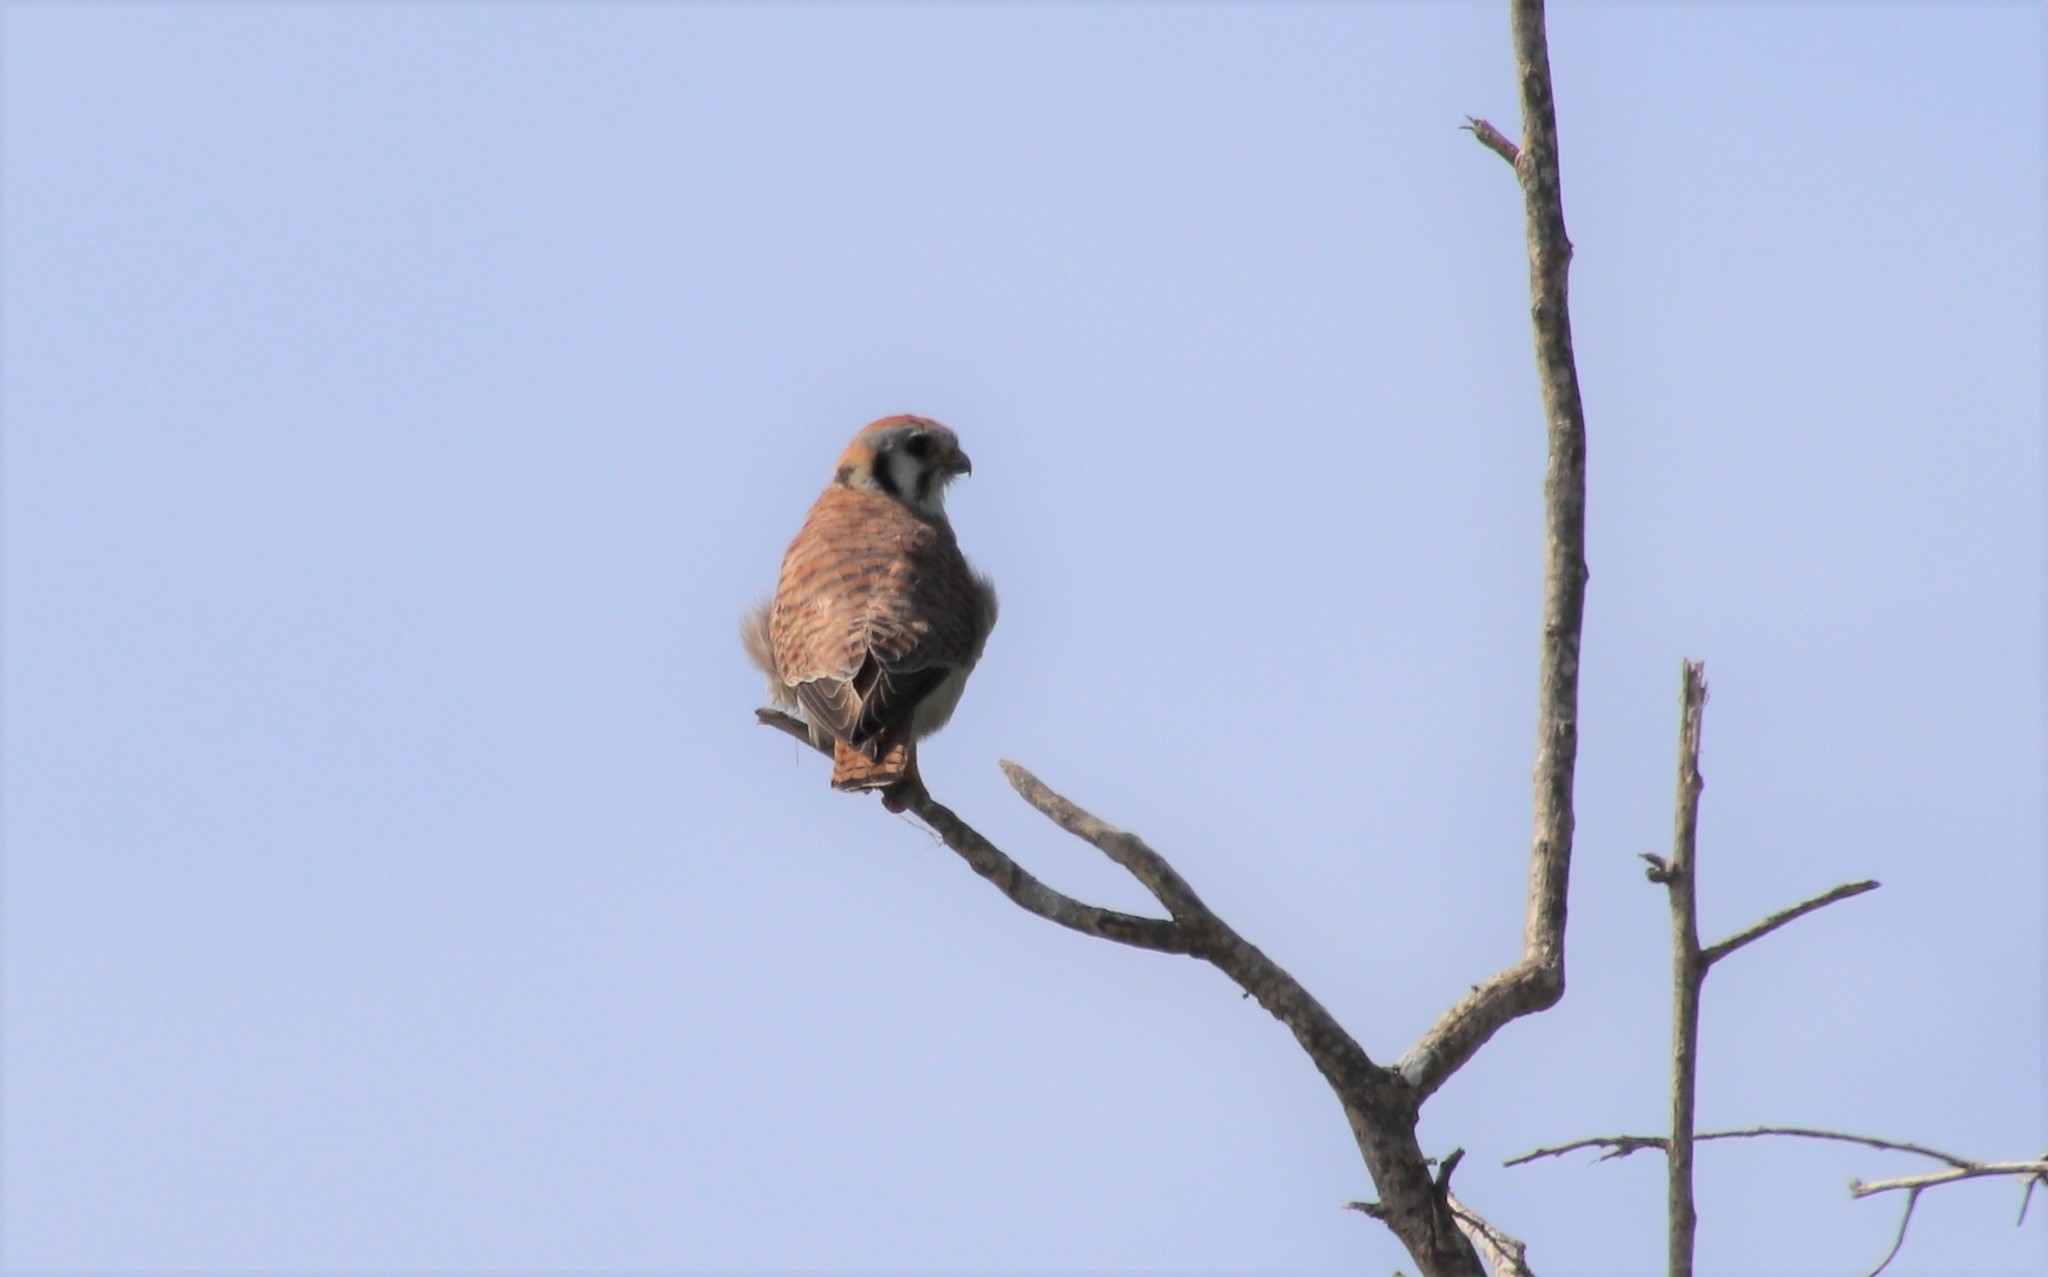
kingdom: Animalia
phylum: Chordata
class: Aves
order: Falconiformes
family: Falconidae
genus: Falco
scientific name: Falco sparverius
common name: American kestrel
